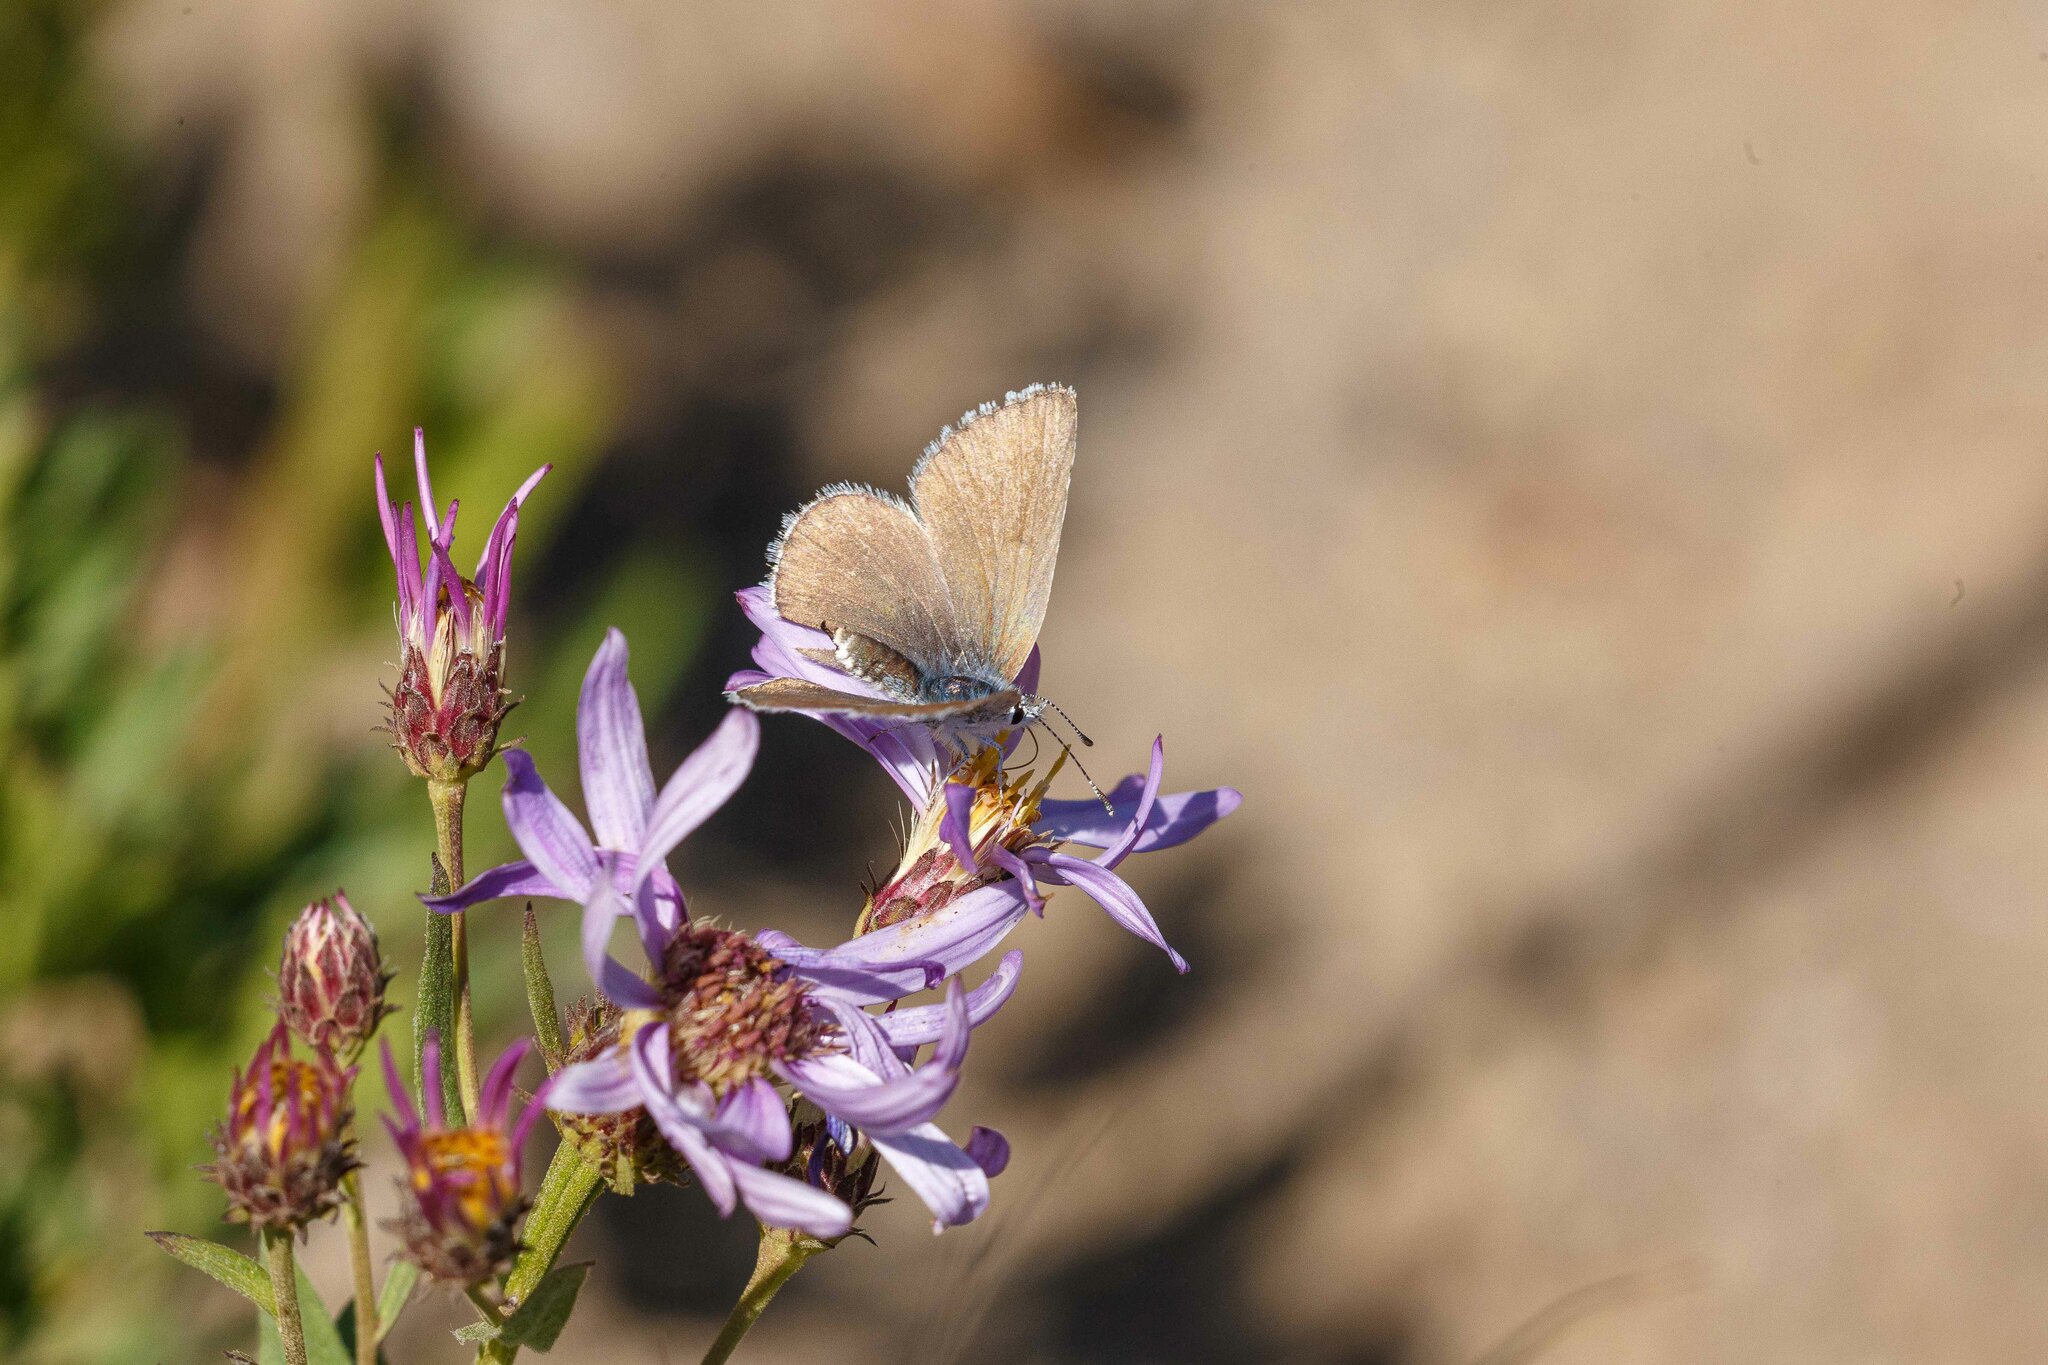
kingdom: Animalia
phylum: Arthropoda
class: Insecta
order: Lepidoptera
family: Lycaenidae
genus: Icaricia
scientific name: Icaricia icarioides
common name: Boisduval's blue
